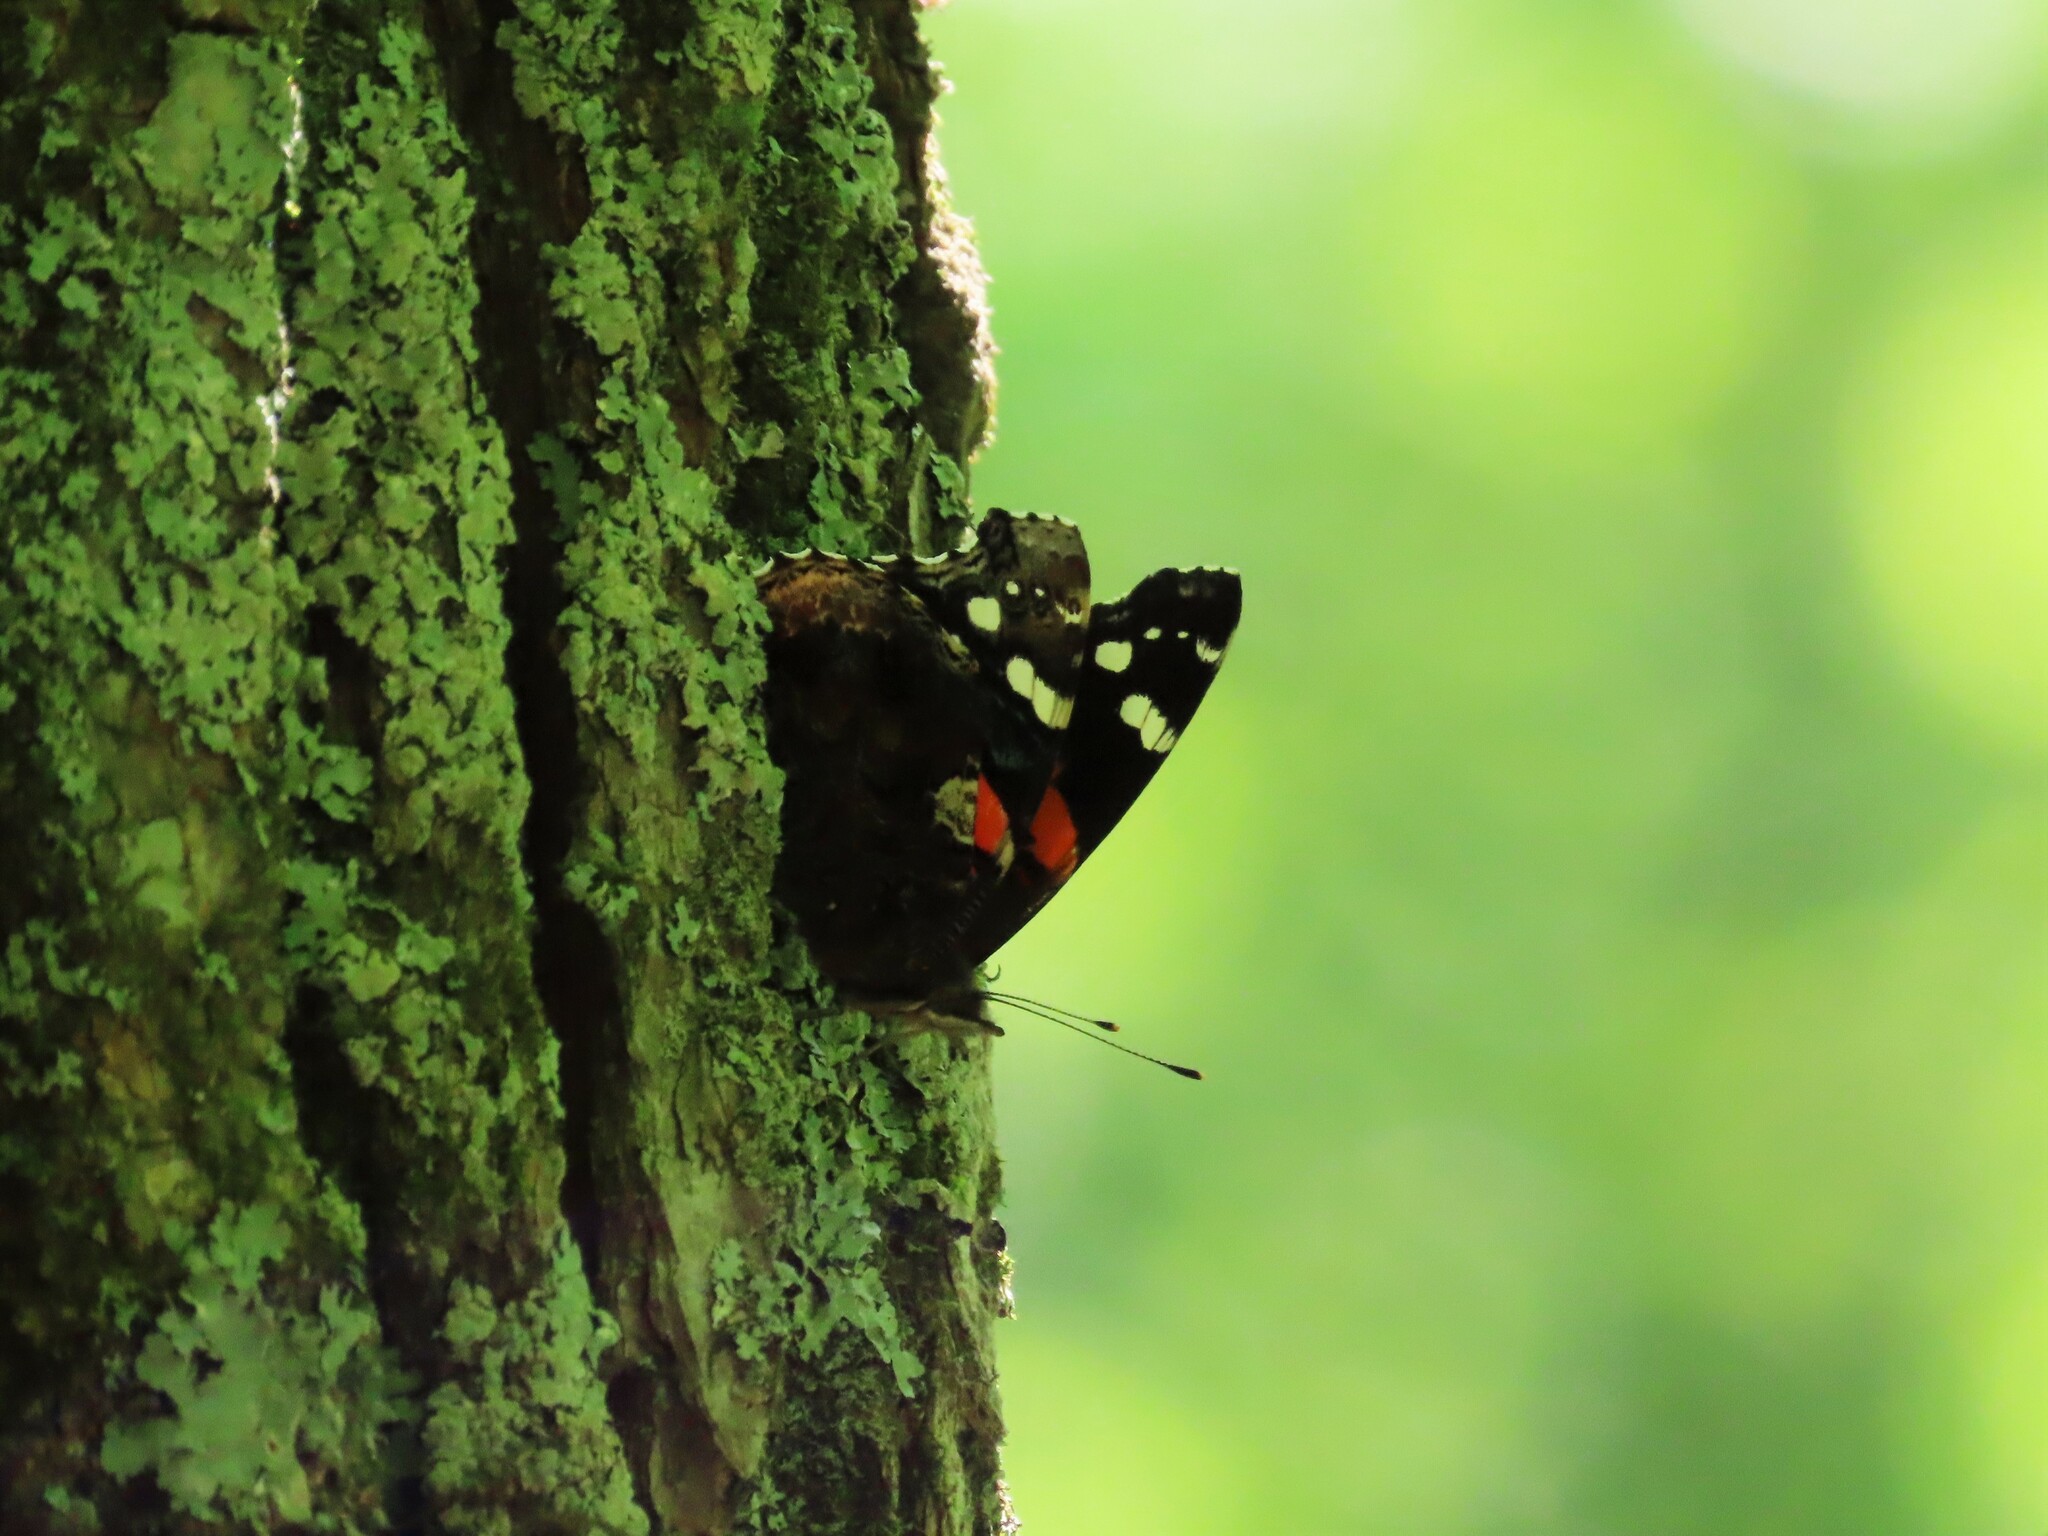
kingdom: Animalia
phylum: Arthropoda
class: Insecta
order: Lepidoptera
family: Nymphalidae
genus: Vanessa
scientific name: Vanessa atalanta
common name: Red admiral
